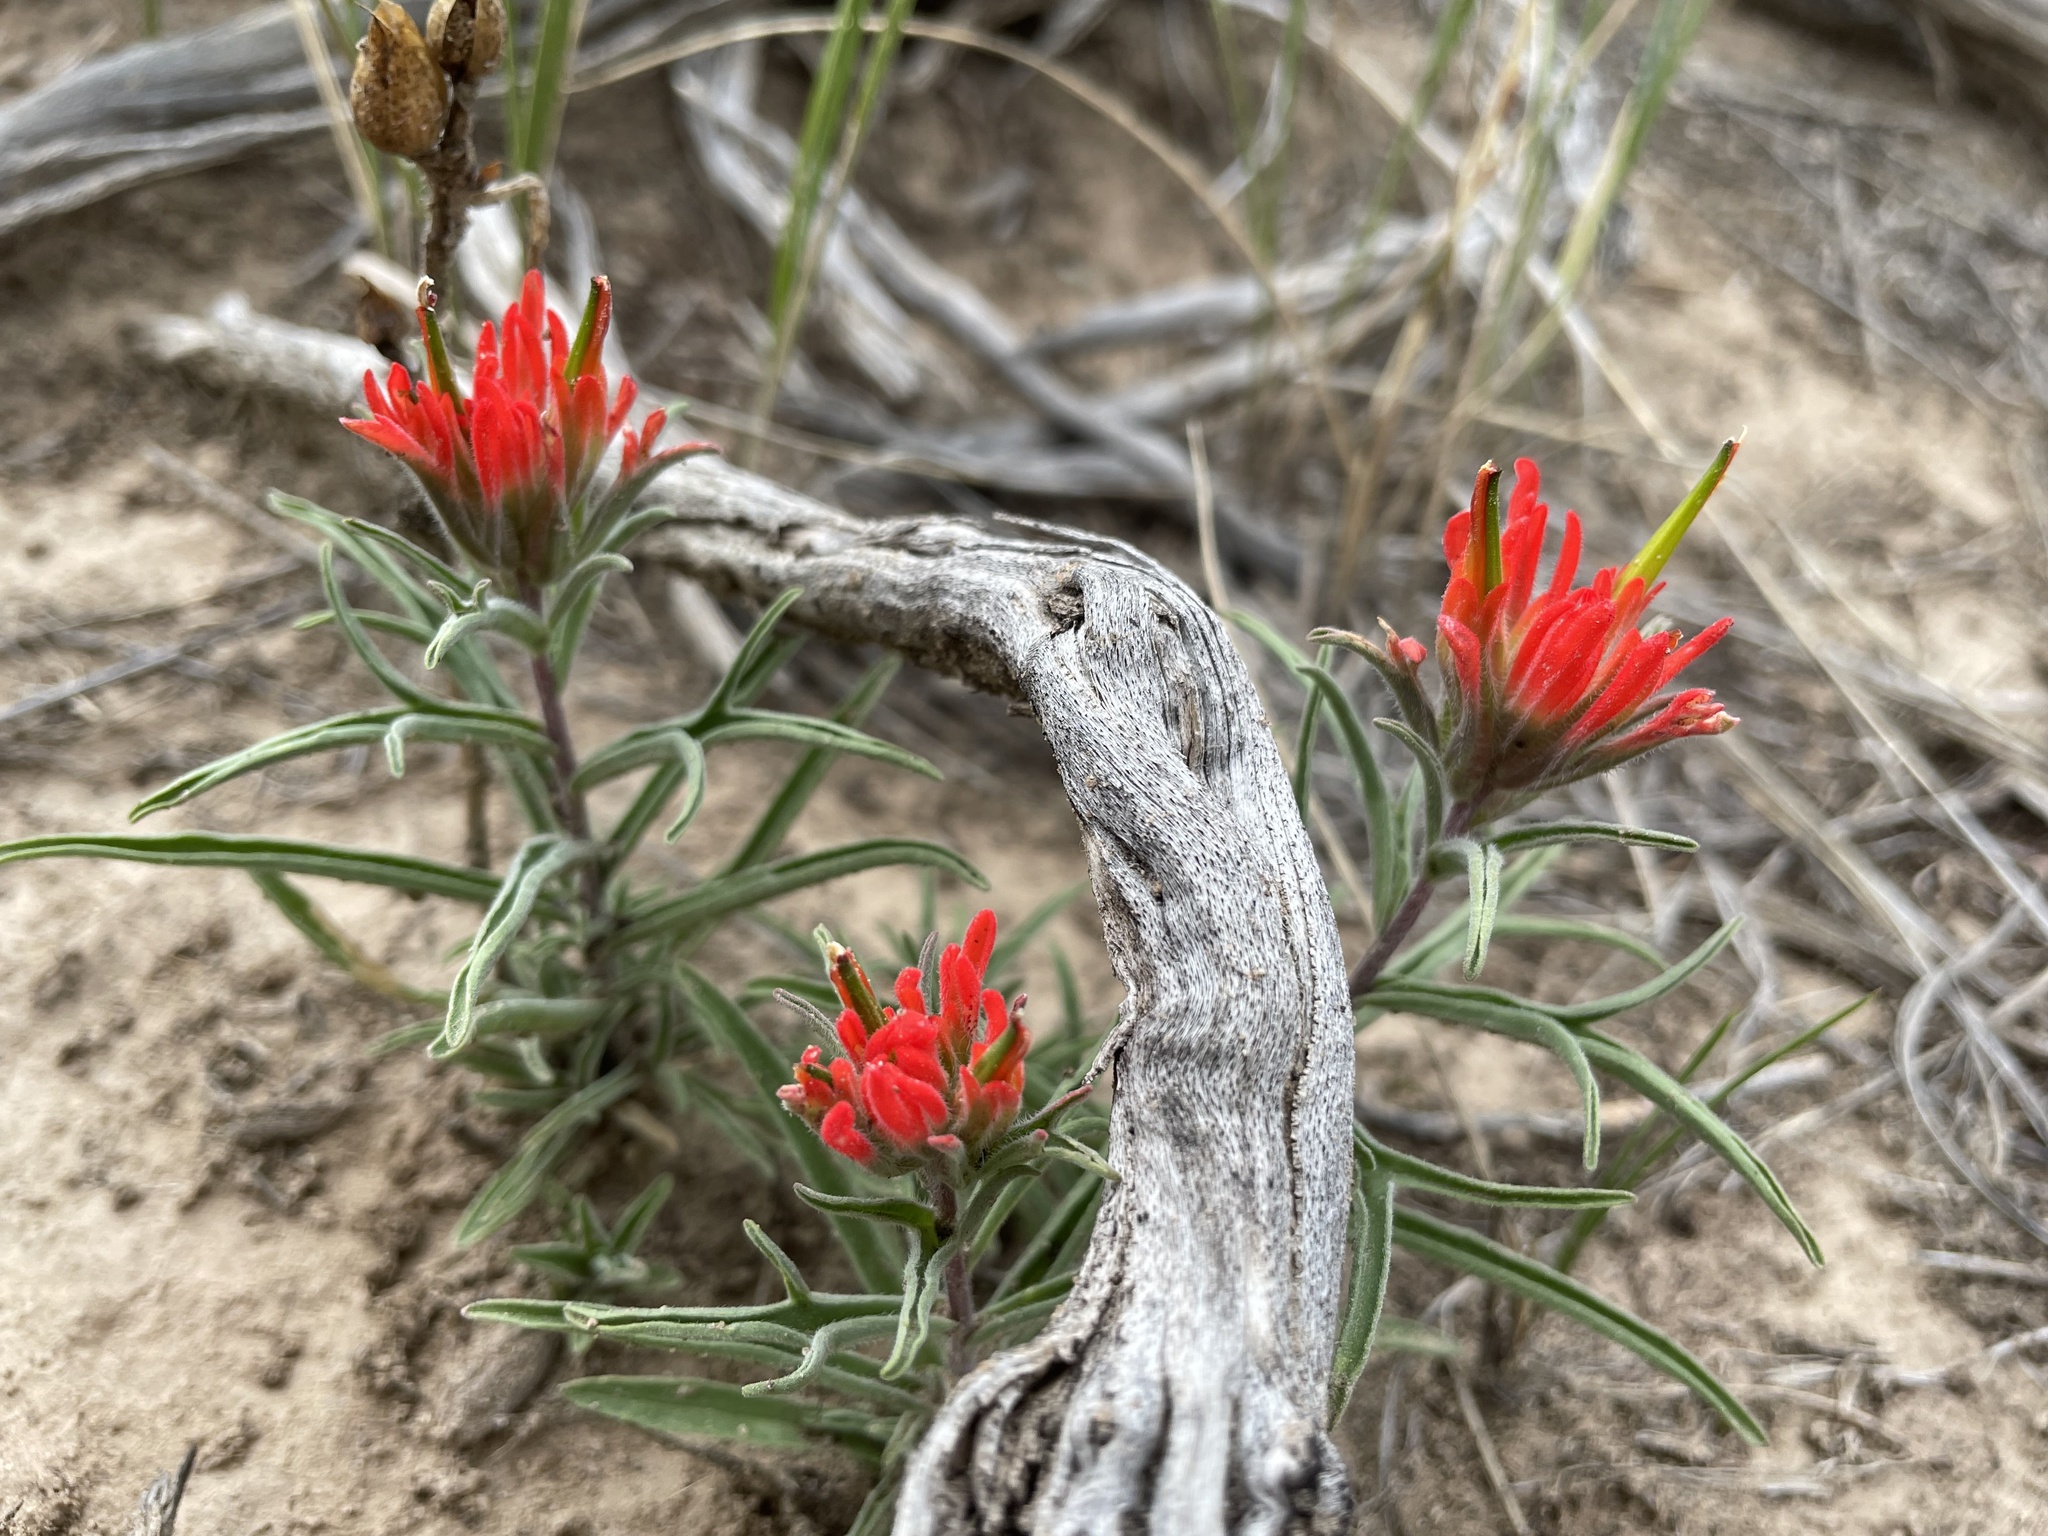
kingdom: Plantae
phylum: Tracheophyta
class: Magnoliopsida
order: Lamiales
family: Orobanchaceae
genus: Castilleja
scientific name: Castilleja chromosa
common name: Desert paintbrush
